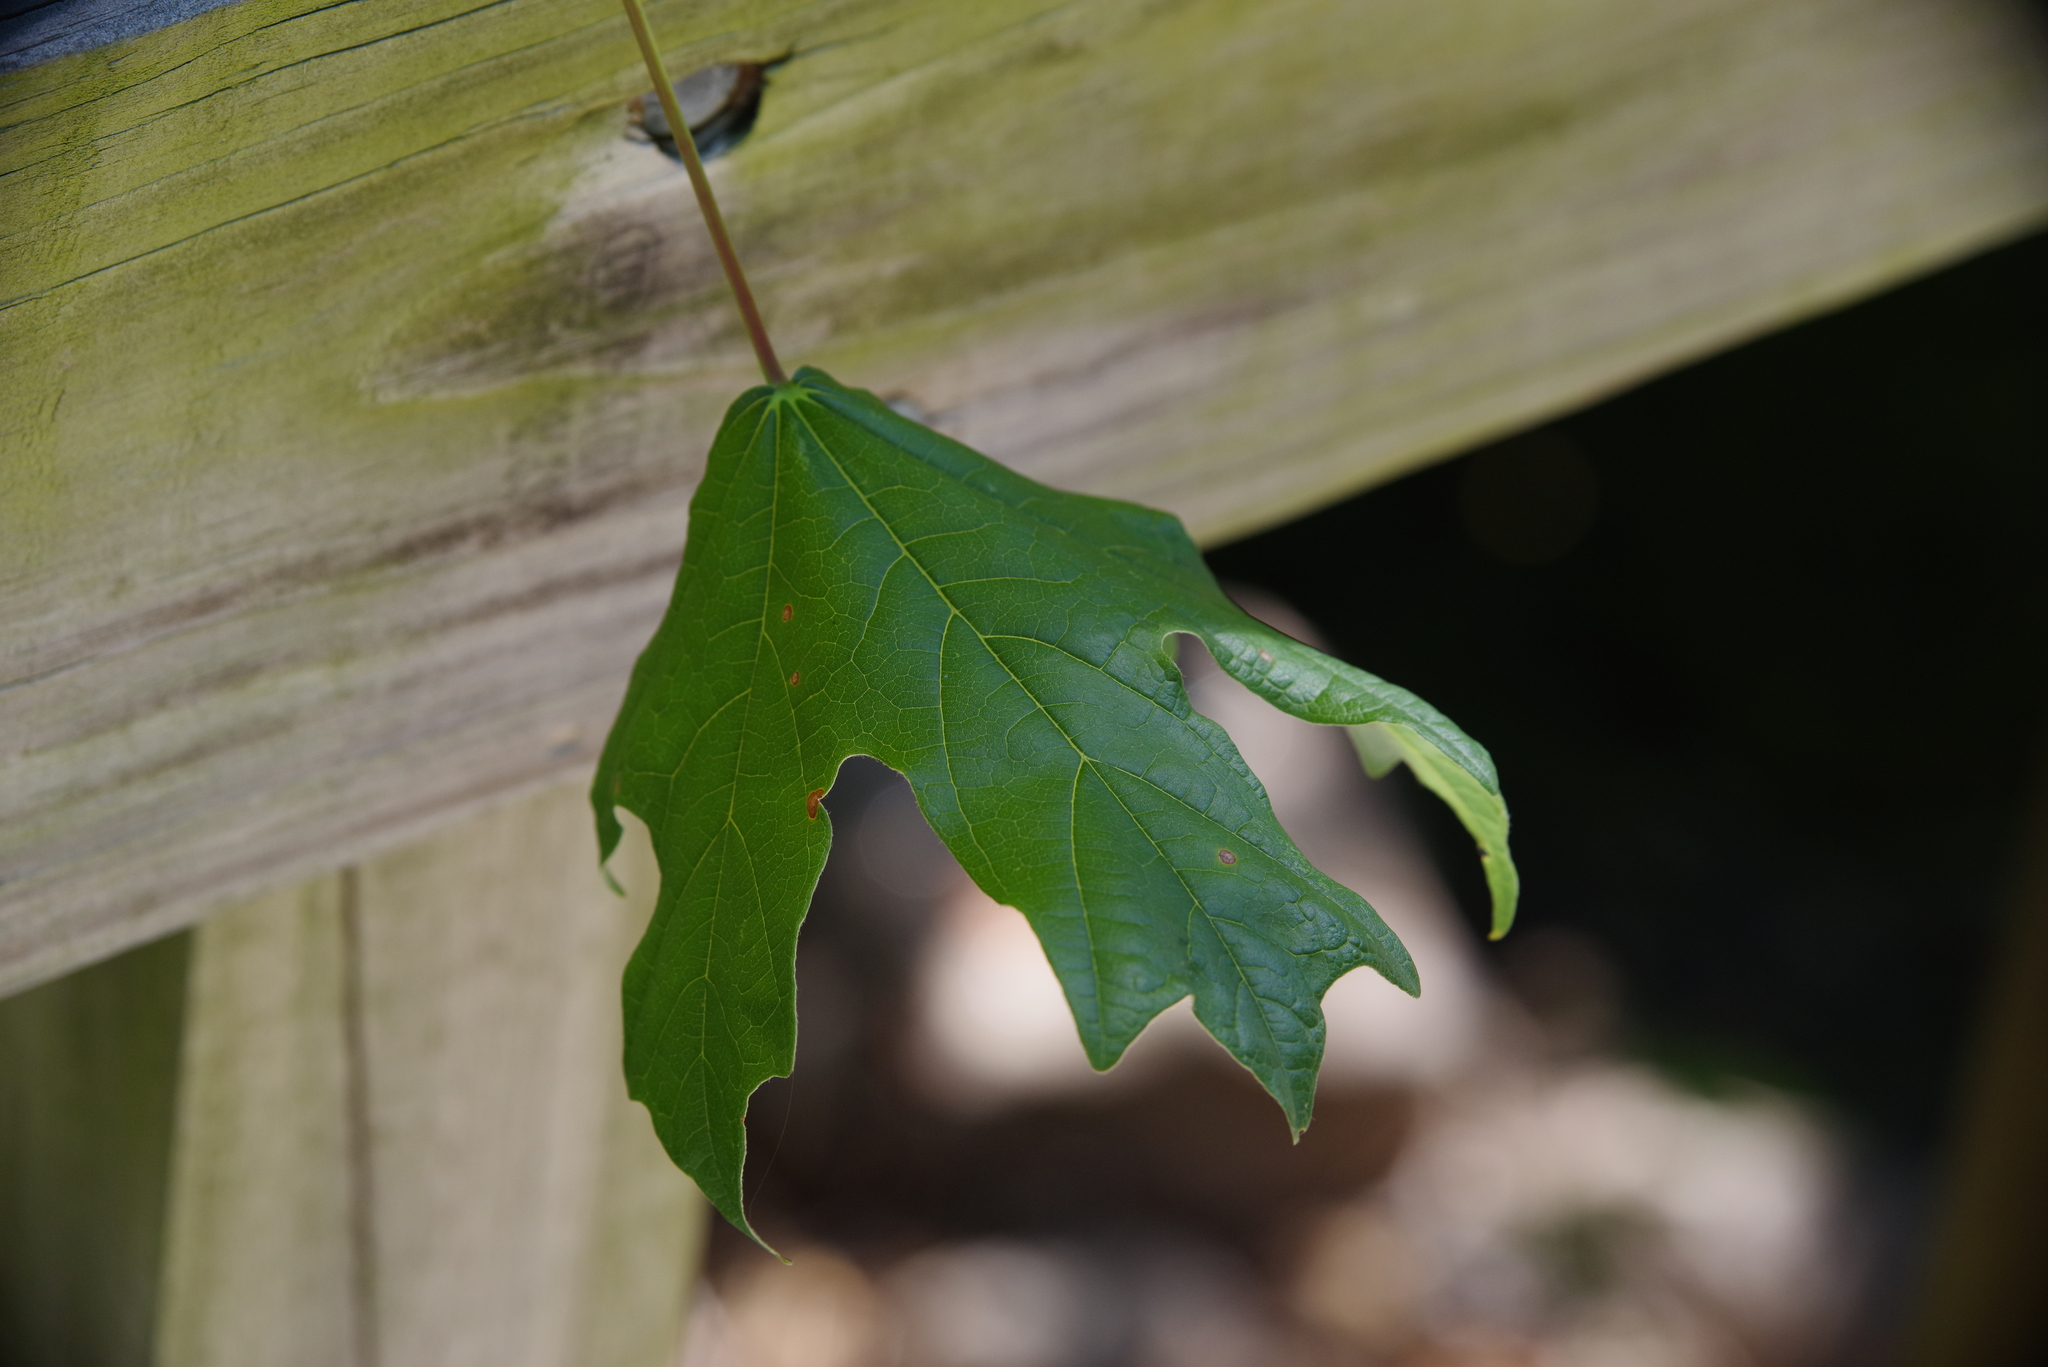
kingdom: Plantae
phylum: Tracheophyta
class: Magnoliopsida
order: Sapindales
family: Sapindaceae
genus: Acer
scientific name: Acer floridanum
